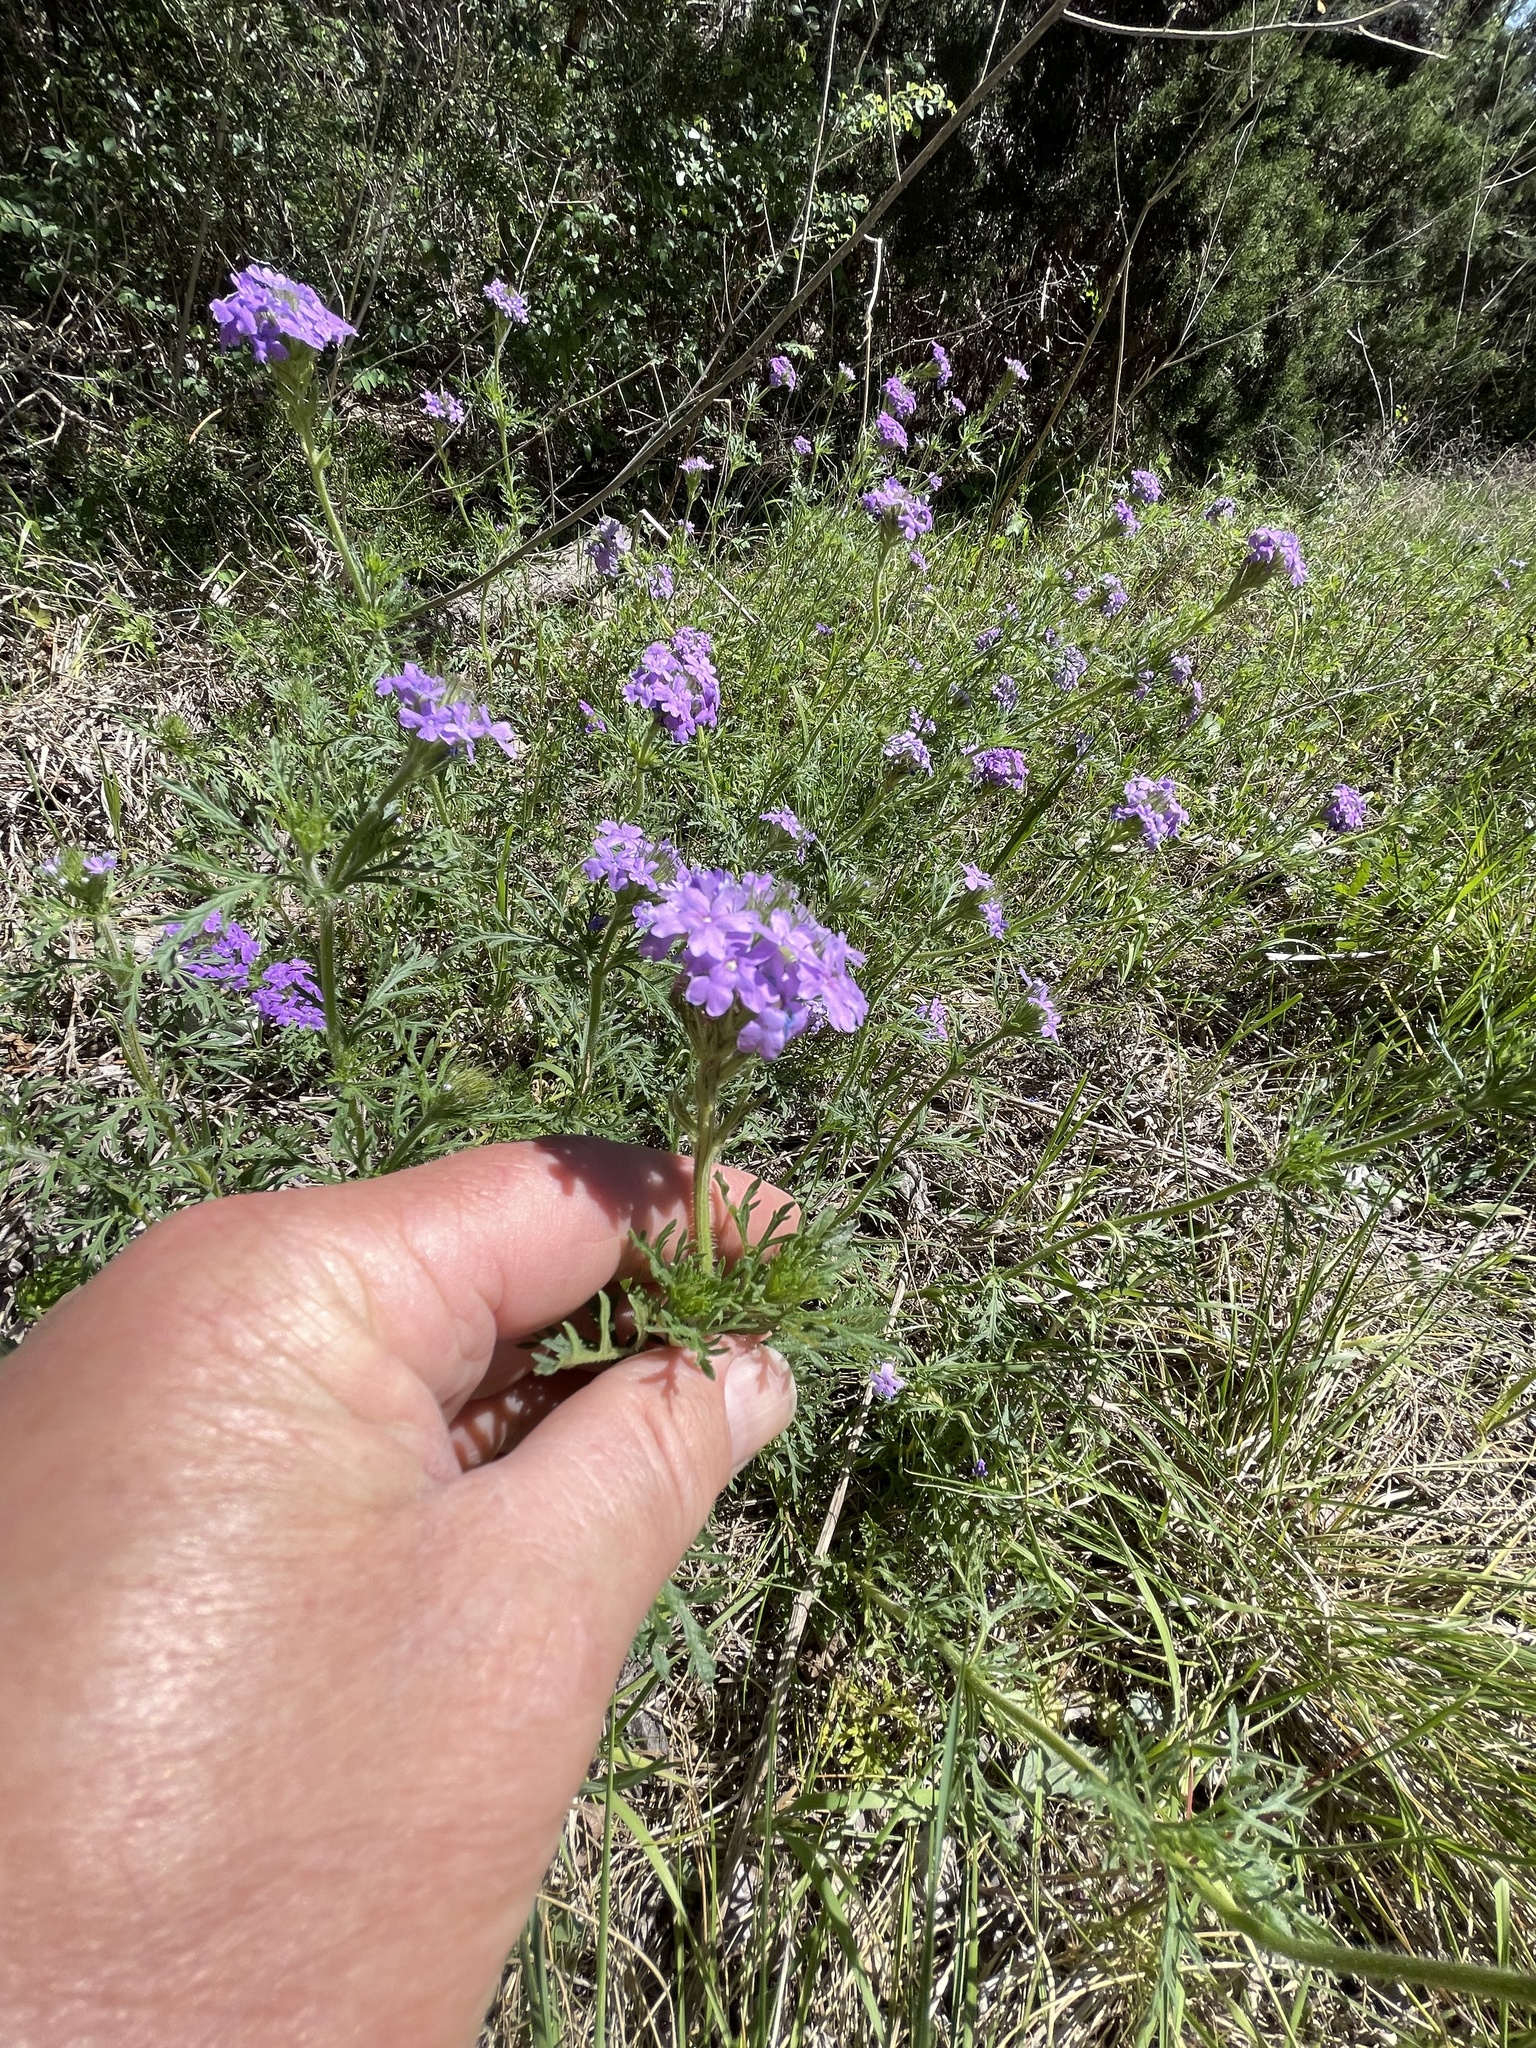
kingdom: Plantae
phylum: Tracheophyta
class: Magnoliopsida
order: Lamiales
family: Verbenaceae
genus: Verbena
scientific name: Verbena bipinnatifida
